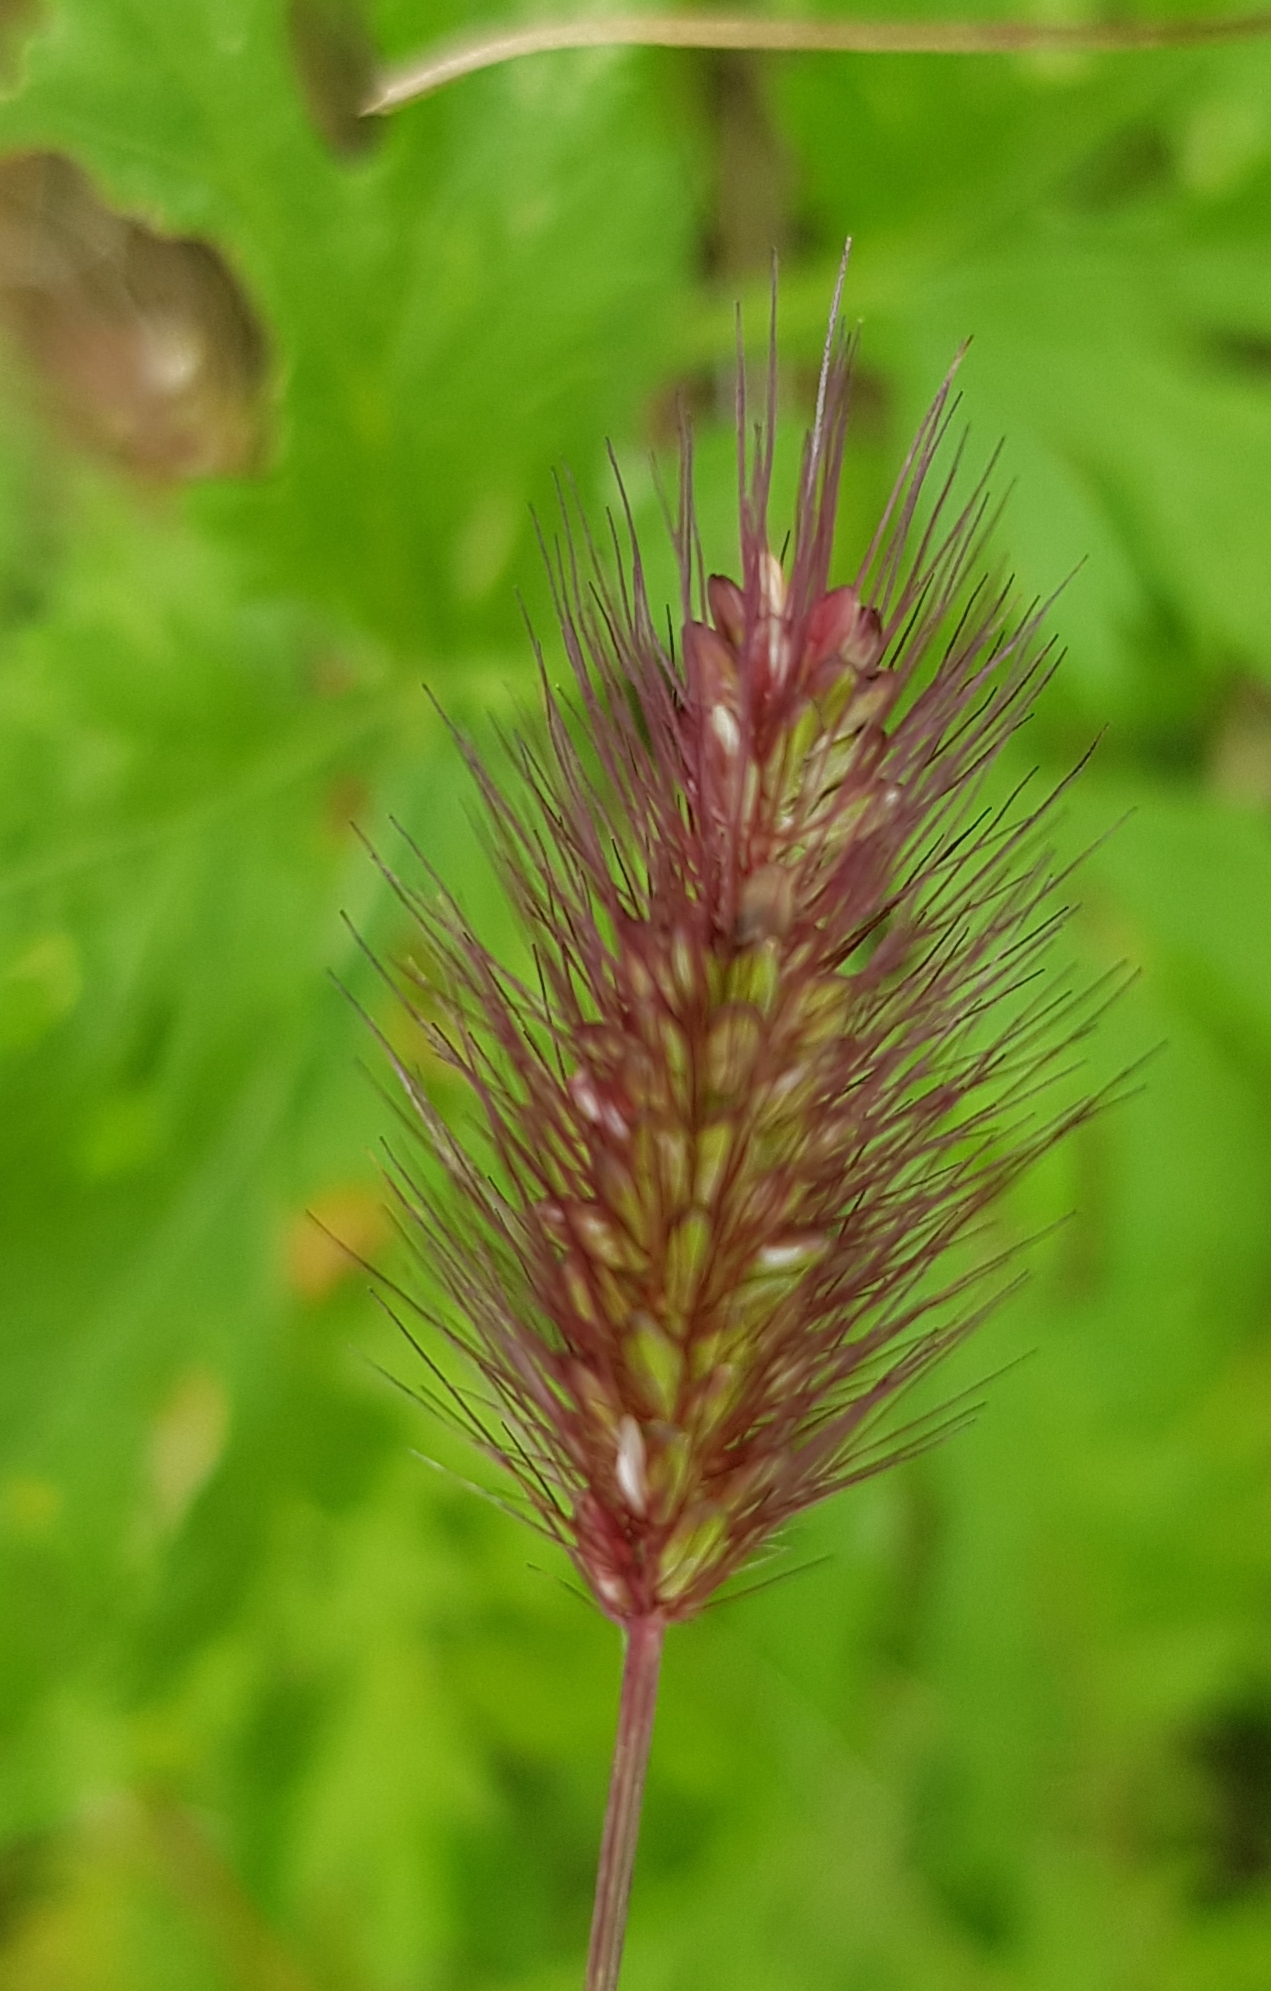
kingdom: Plantae
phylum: Tracheophyta
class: Liliopsida
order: Poales
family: Poaceae
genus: Setaria
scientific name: Setaria viridis
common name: Green bristlegrass
